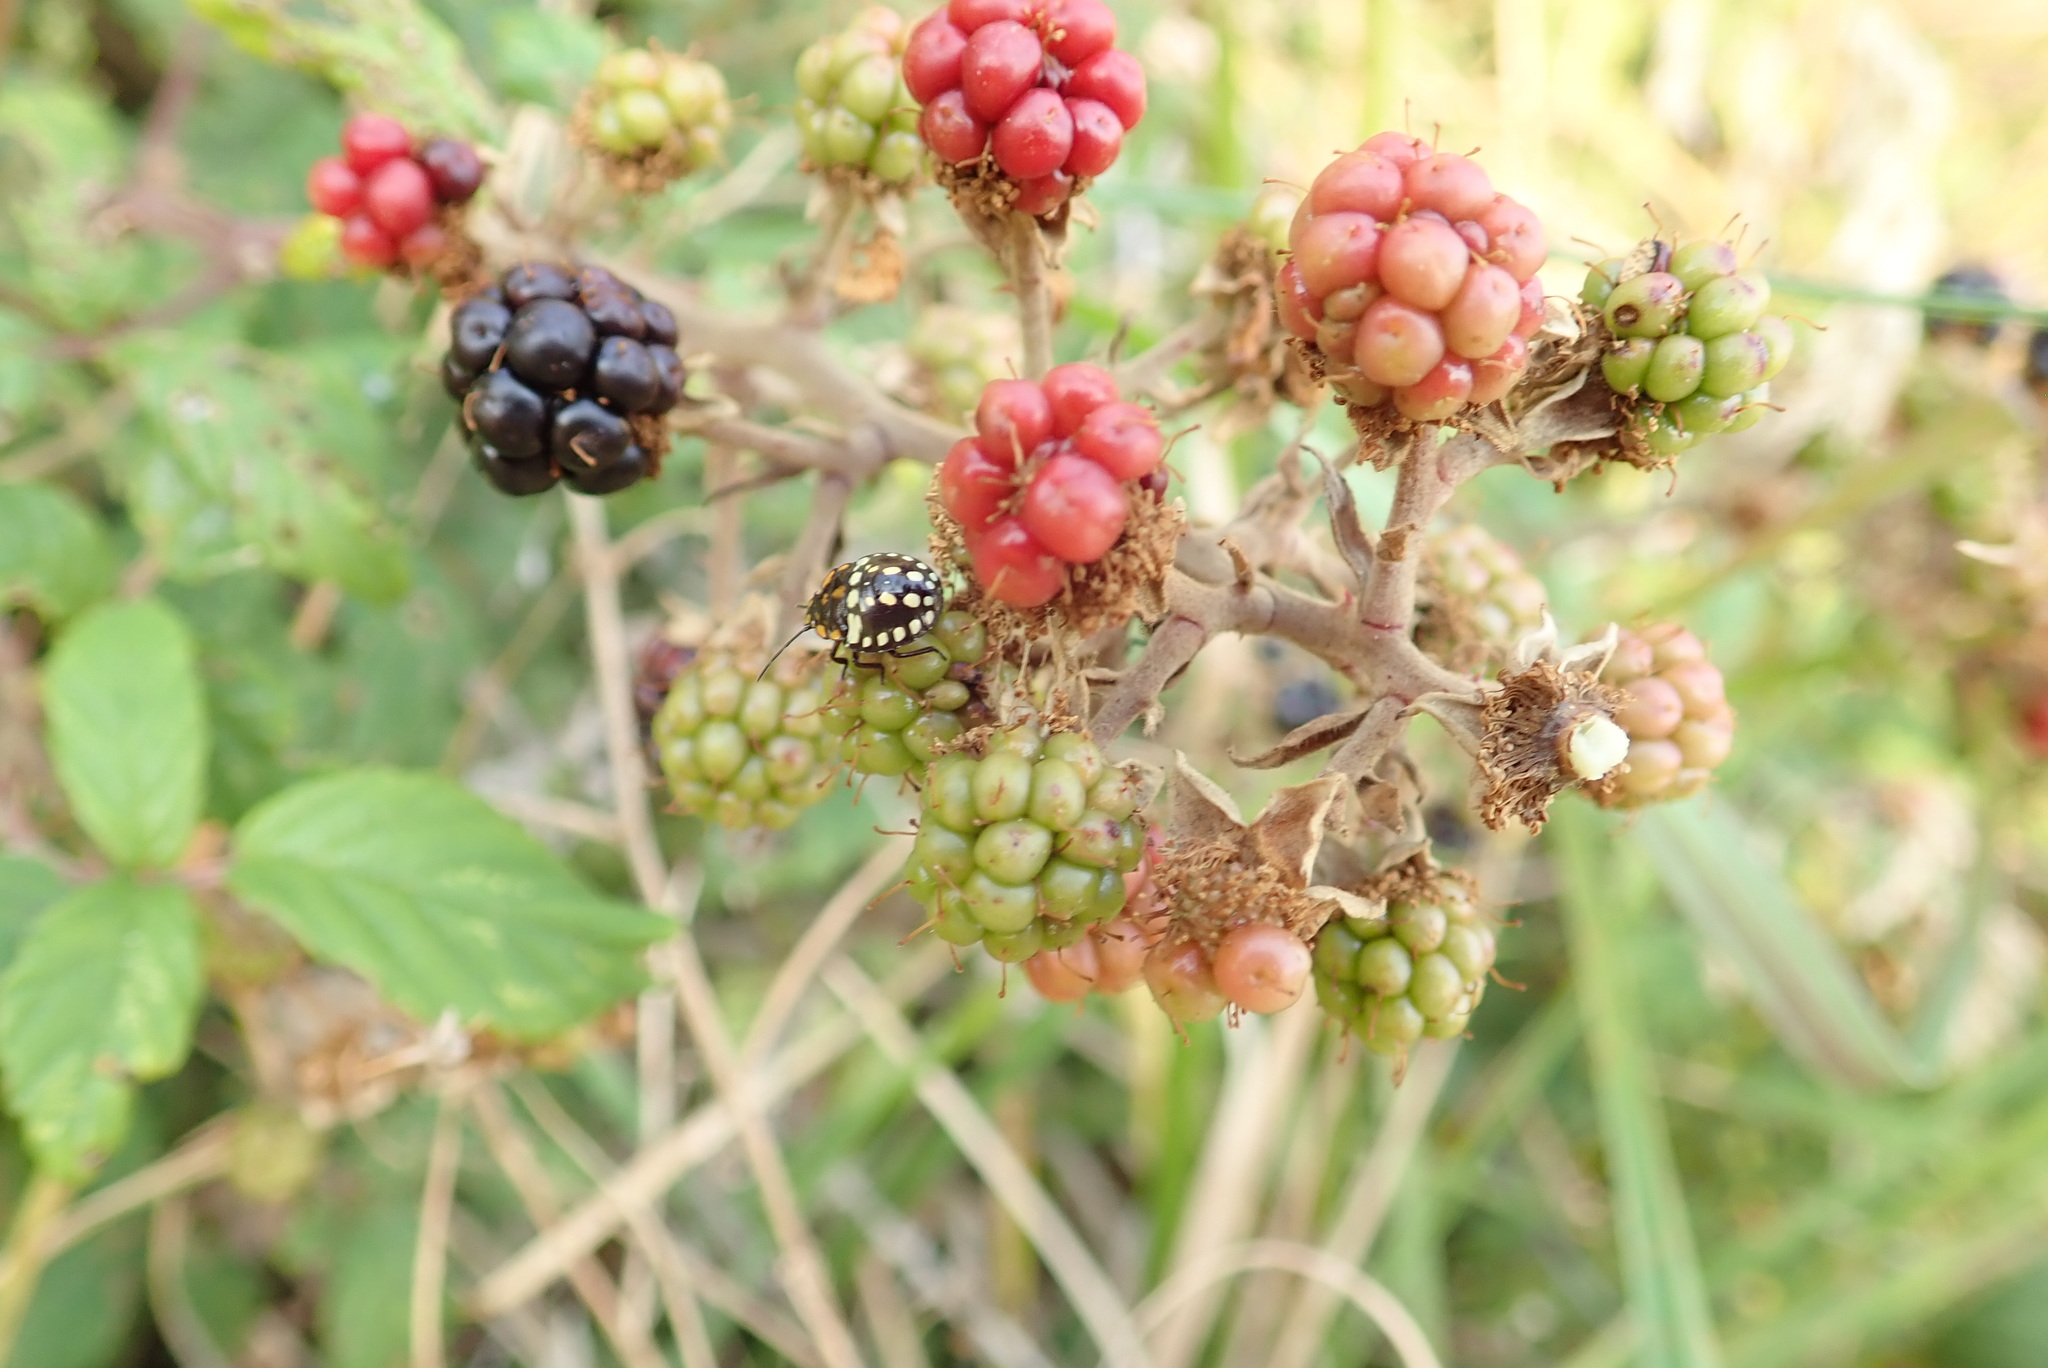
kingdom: Animalia
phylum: Arthropoda
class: Insecta
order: Hemiptera
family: Pentatomidae
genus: Nezara
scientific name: Nezara viridula
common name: Southern green stink bug
